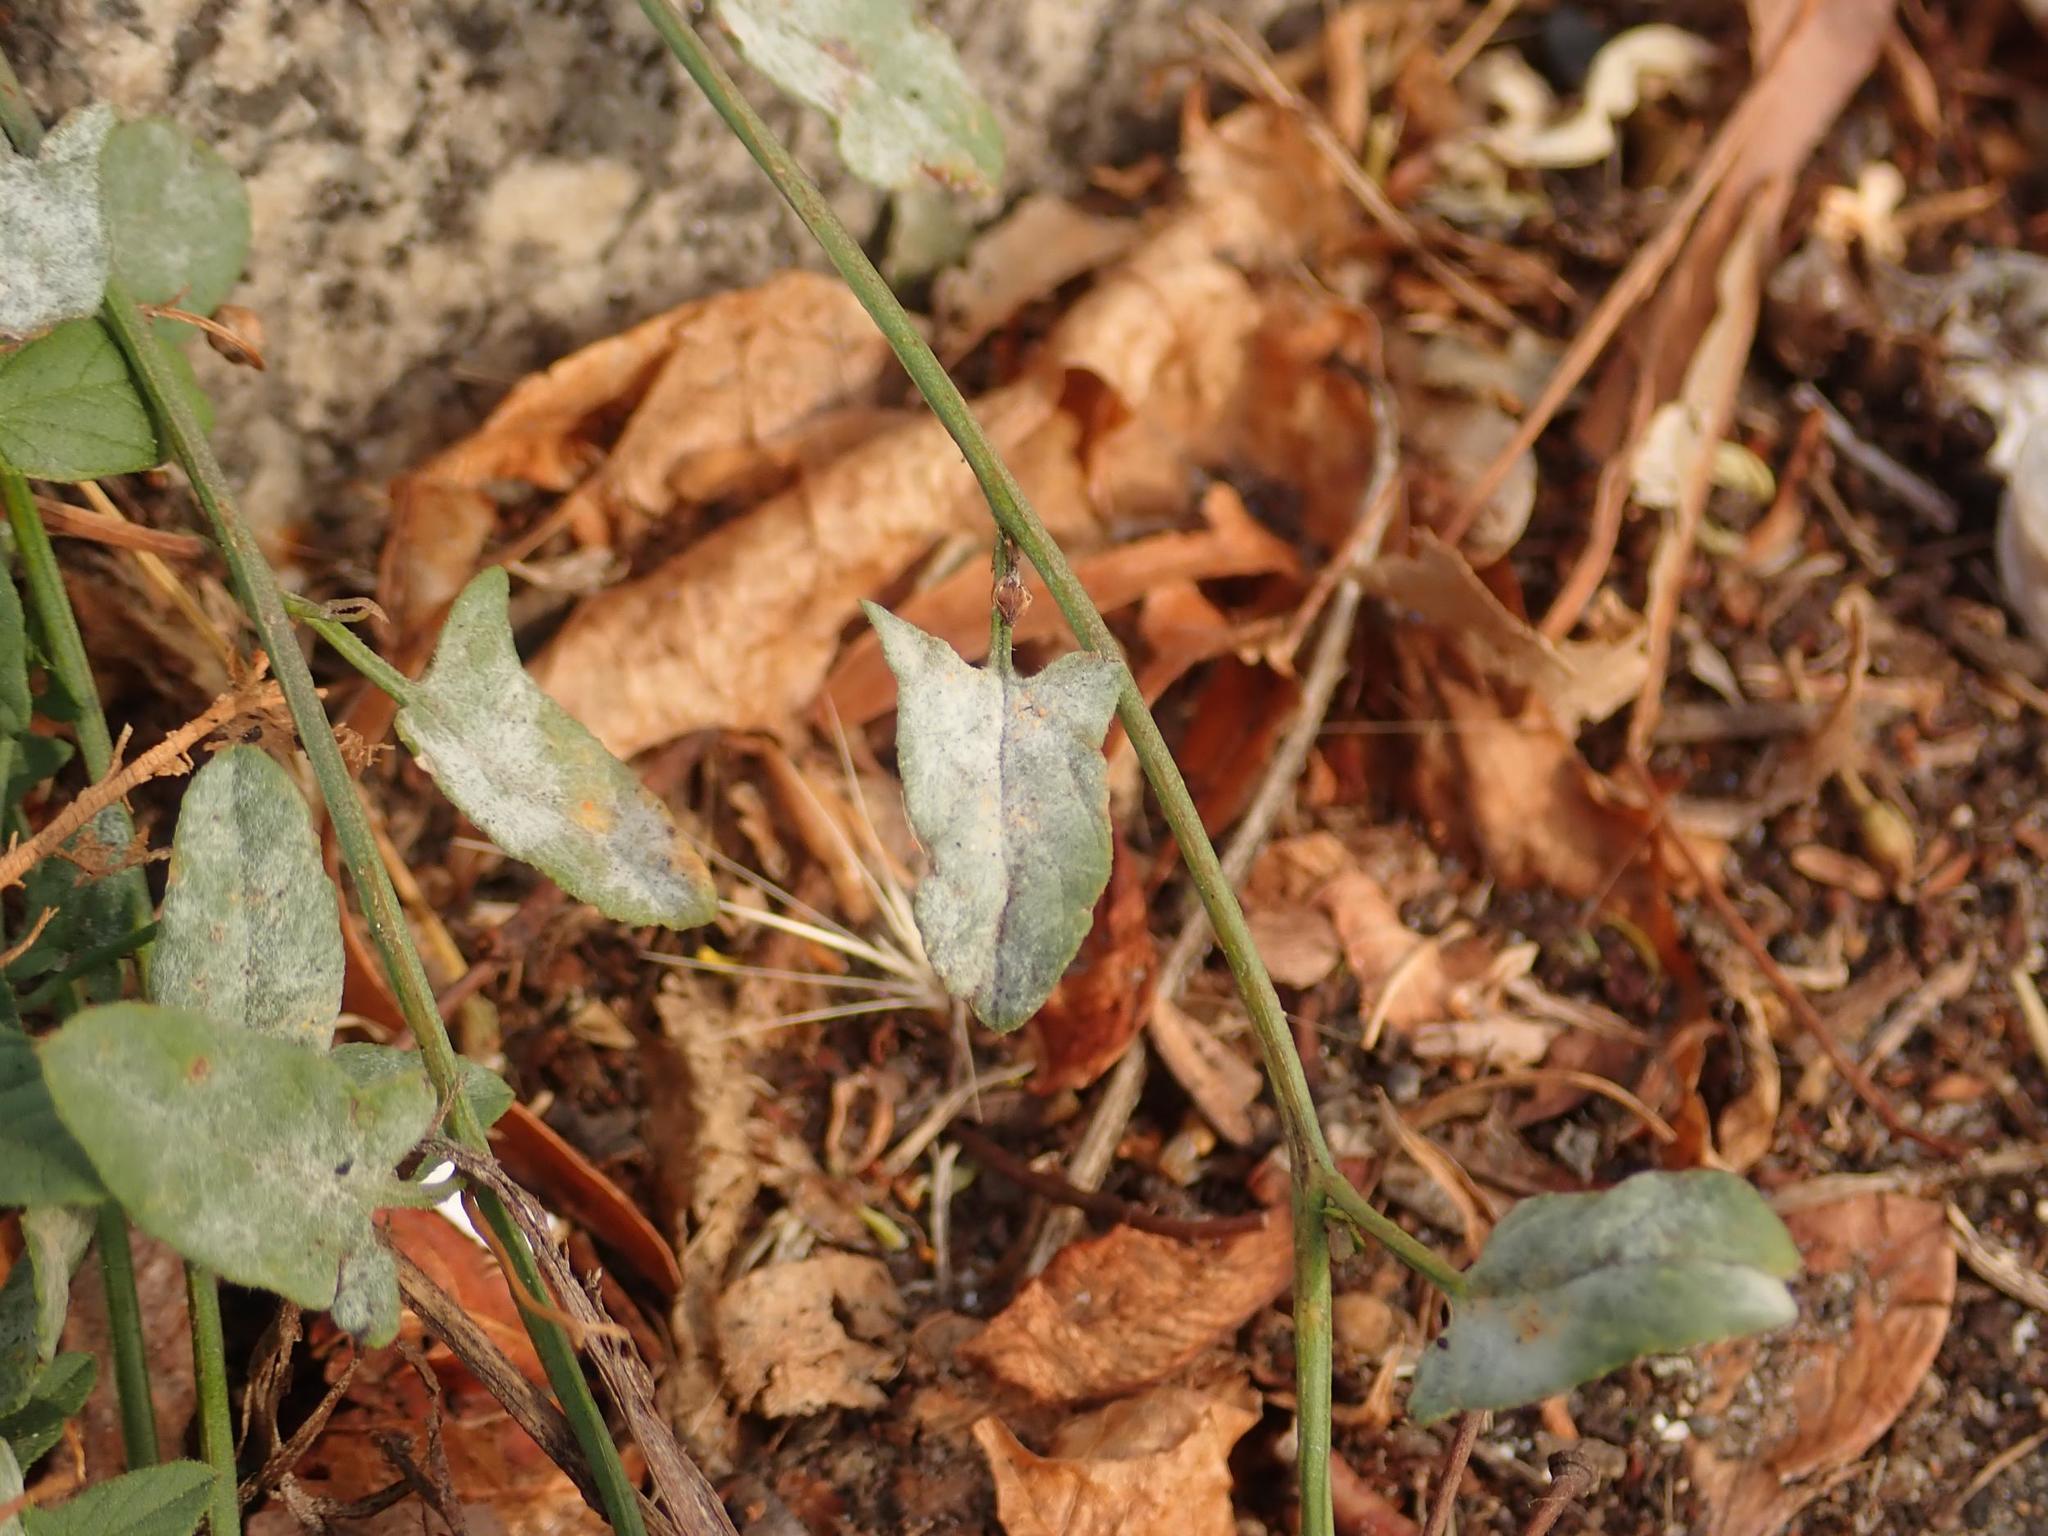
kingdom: Fungi
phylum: Ascomycota
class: Leotiomycetes
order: Helotiales
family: Erysiphaceae
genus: Erysiphe
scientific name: Erysiphe convolvuli
